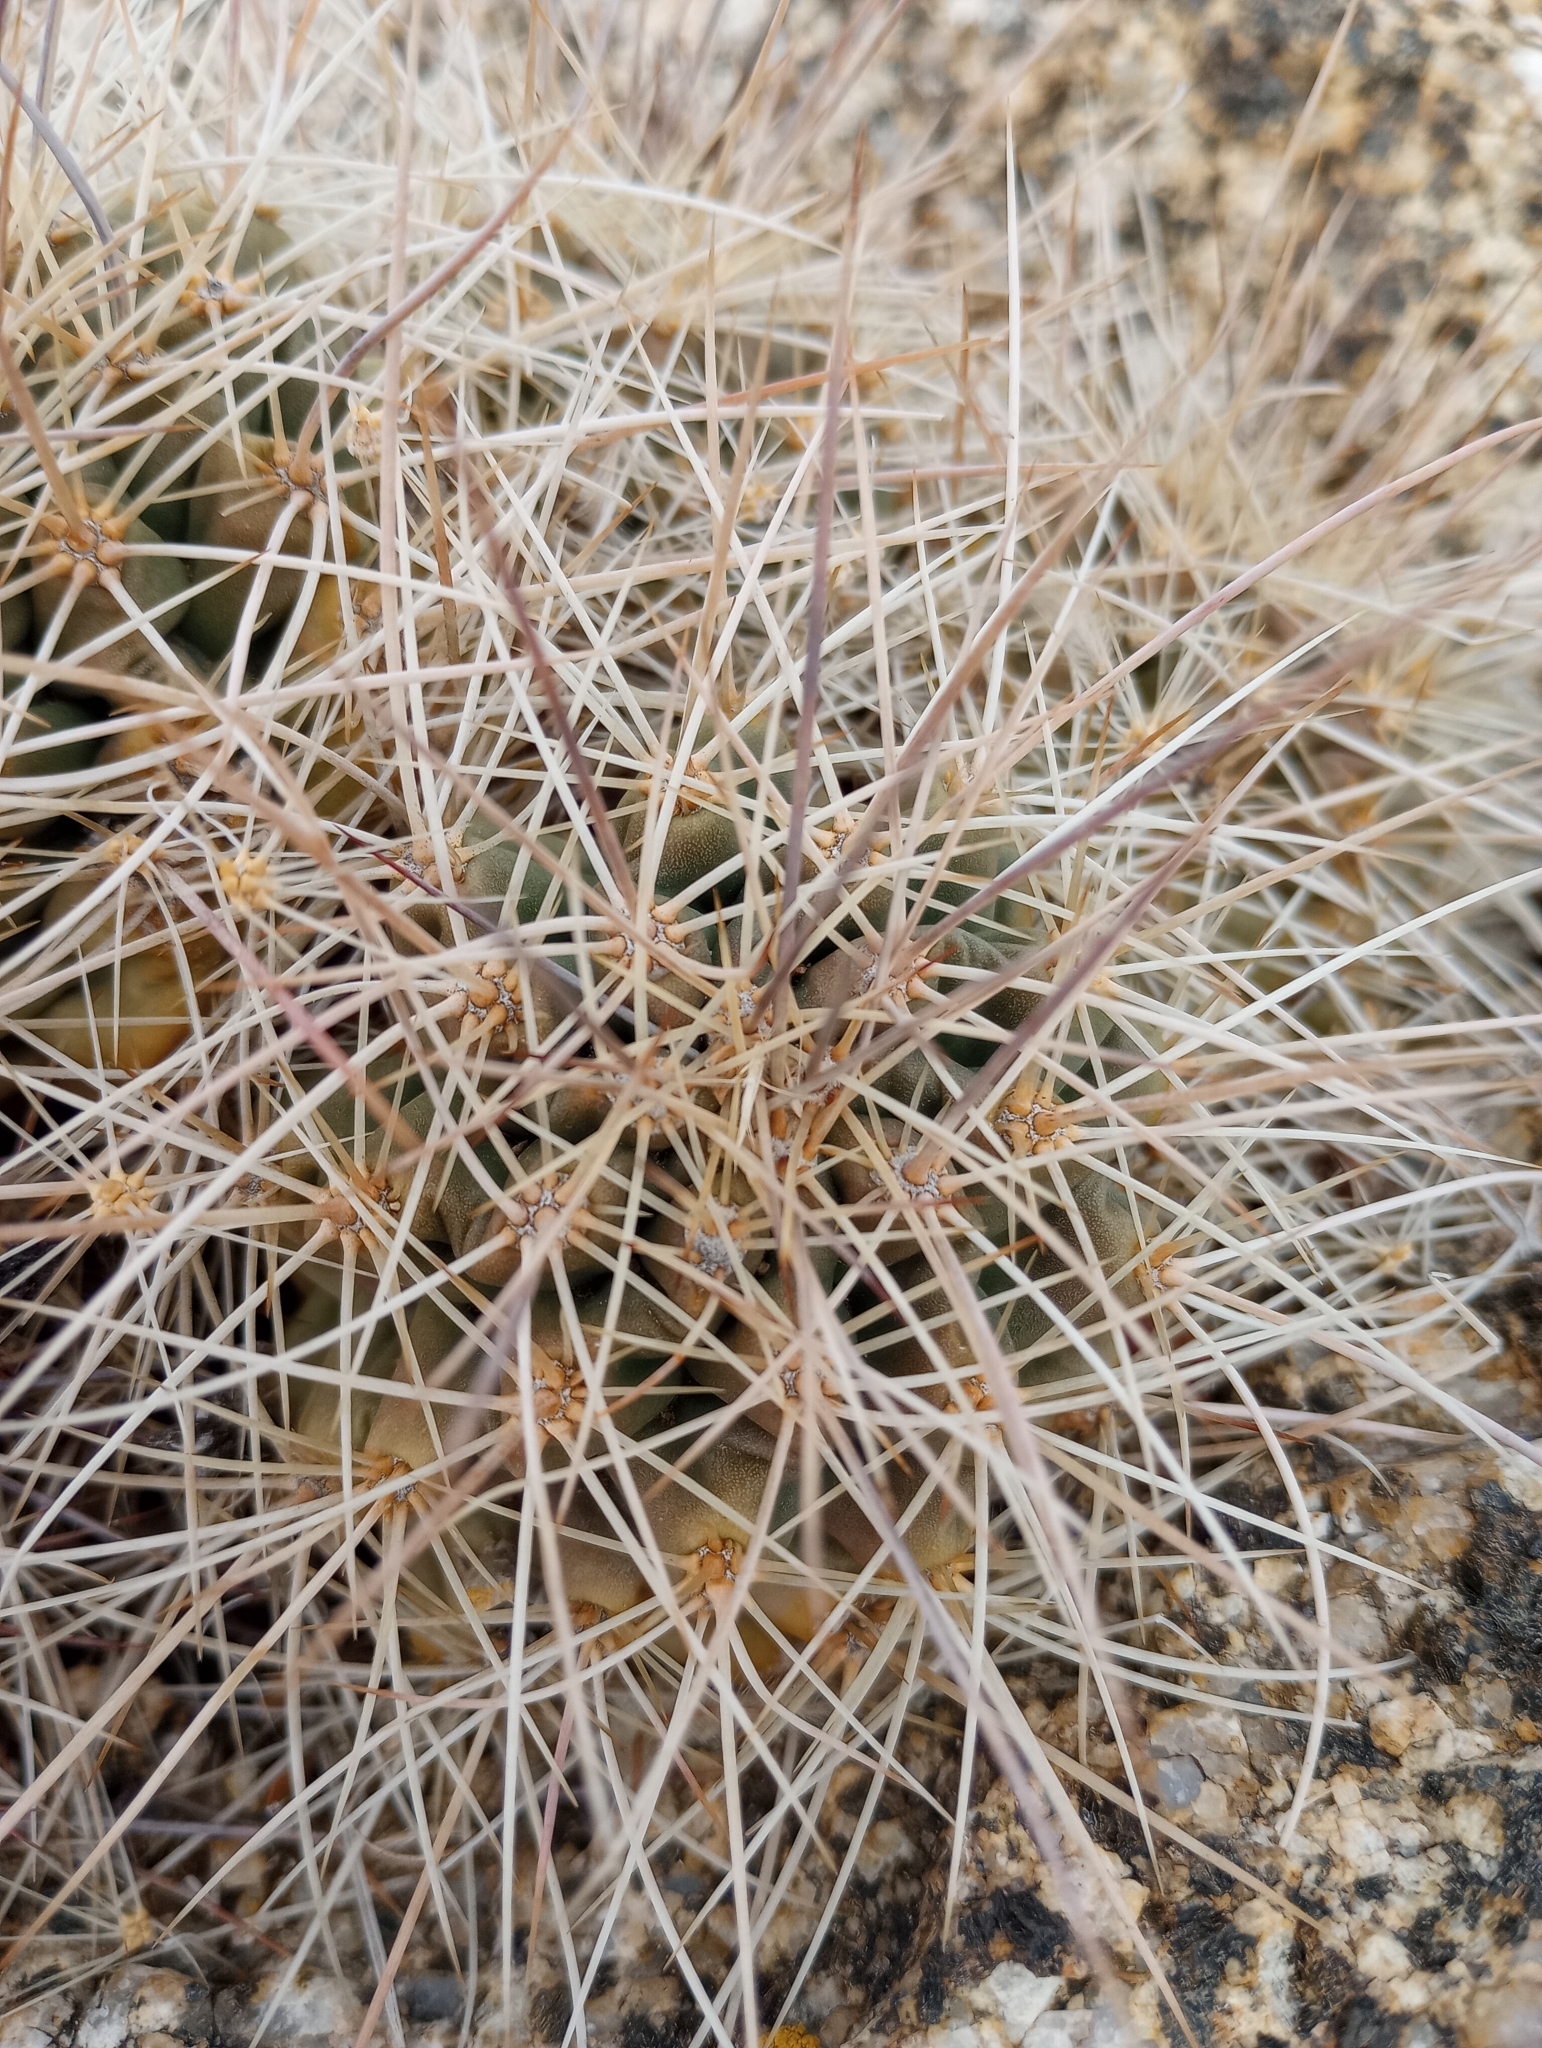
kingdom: Plantae
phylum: Tracheophyta
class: Magnoliopsida
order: Caryophyllales
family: Cactaceae
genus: Echinocereus
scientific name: Echinocereus coccineus
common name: Scarlet hedgehog cactus
